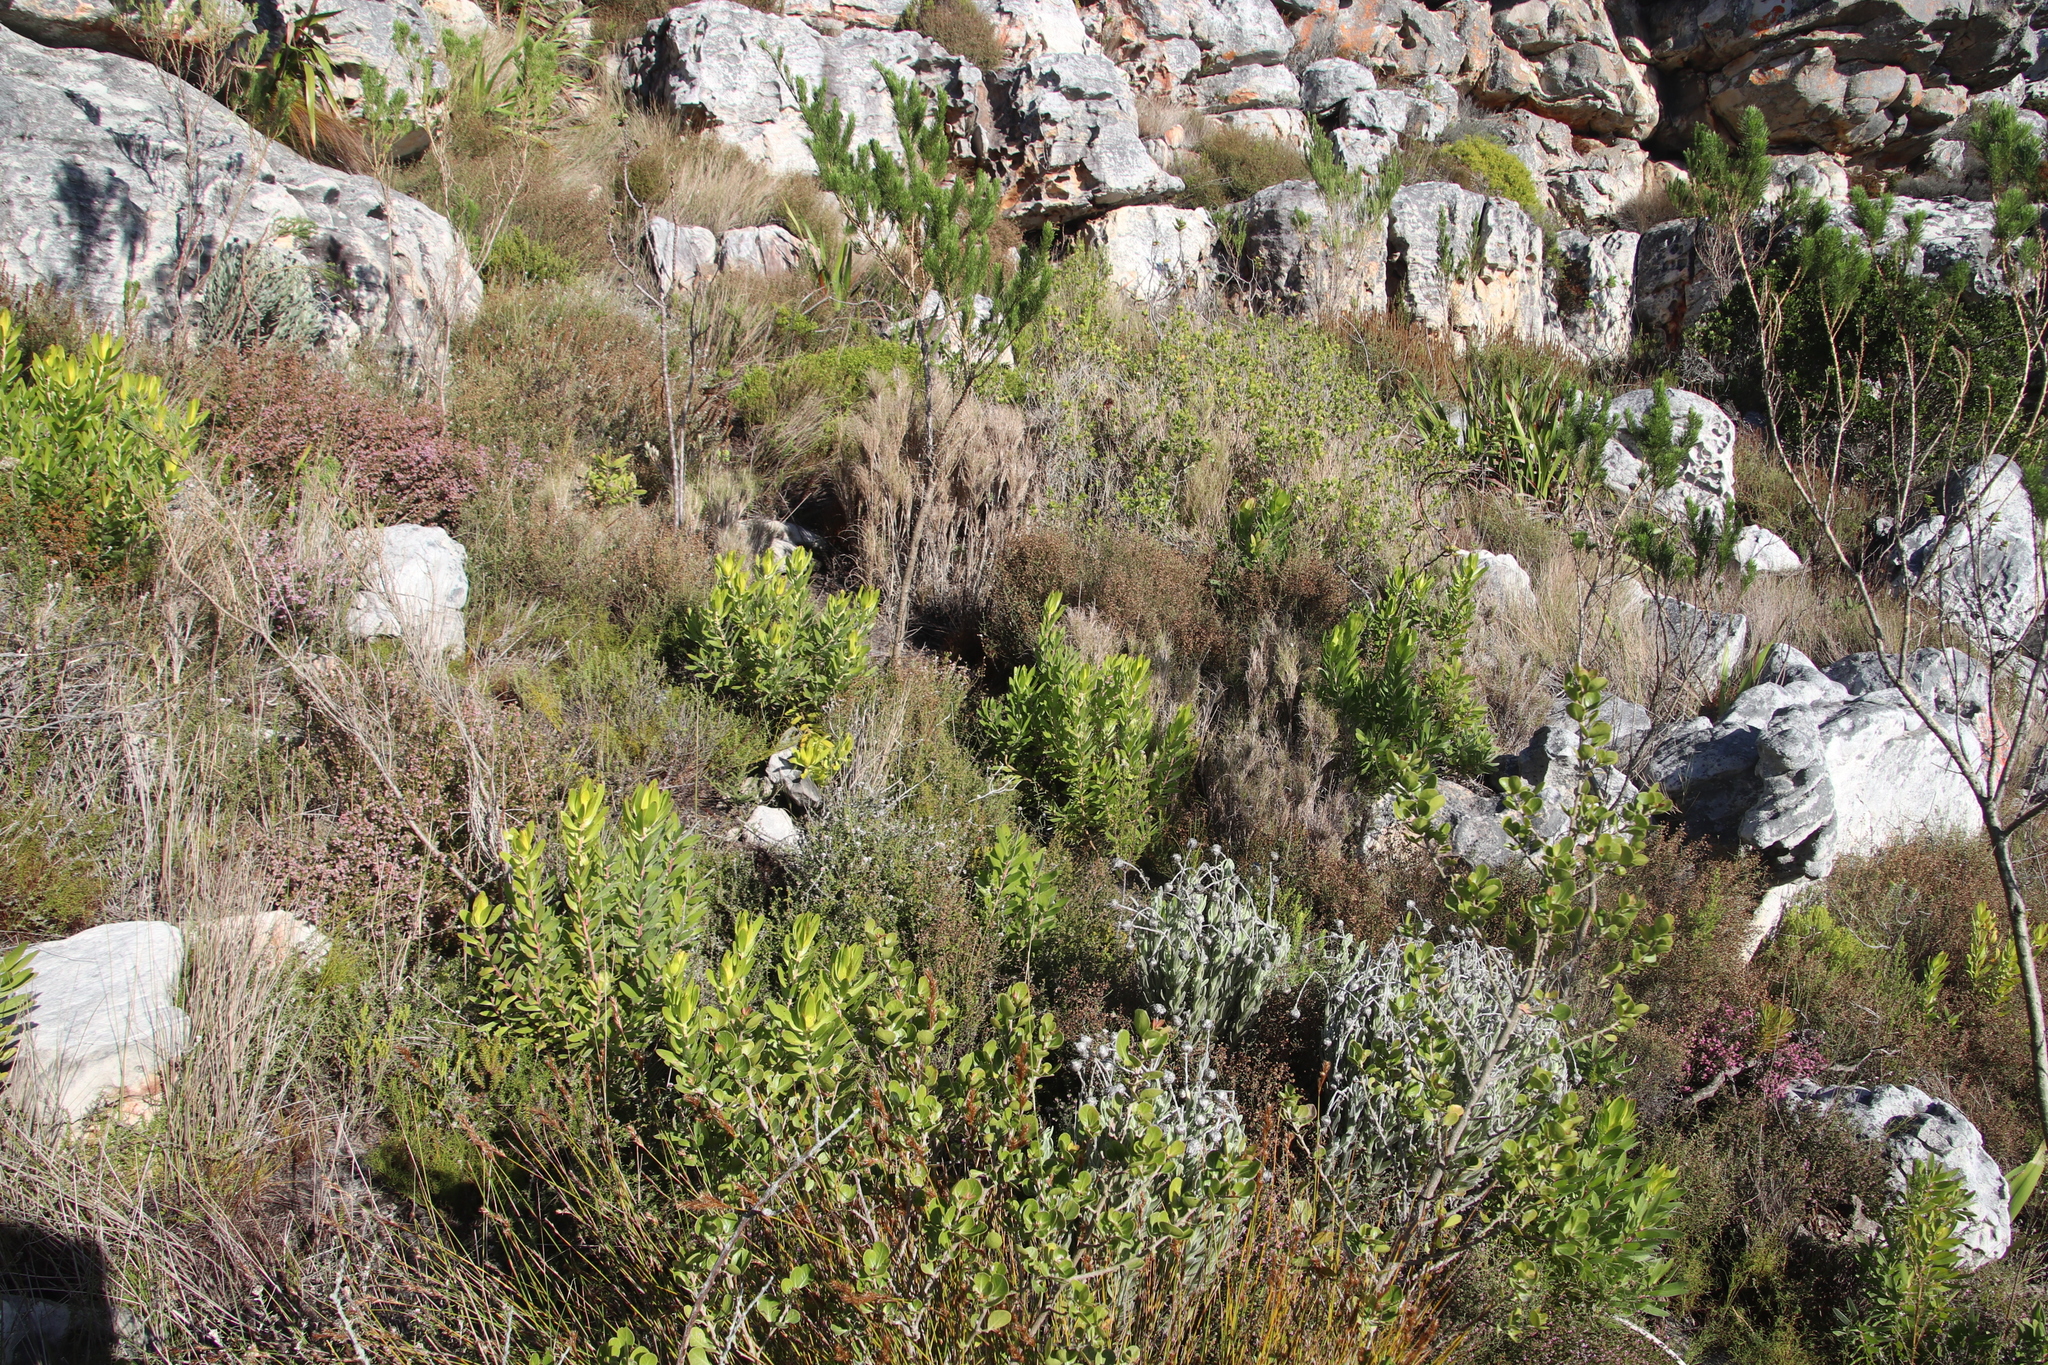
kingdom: Plantae
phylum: Tracheophyta
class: Magnoliopsida
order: Proteales
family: Proteaceae
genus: Leucadendron
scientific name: Leucadendron laureolum
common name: Golden sunshinebush
